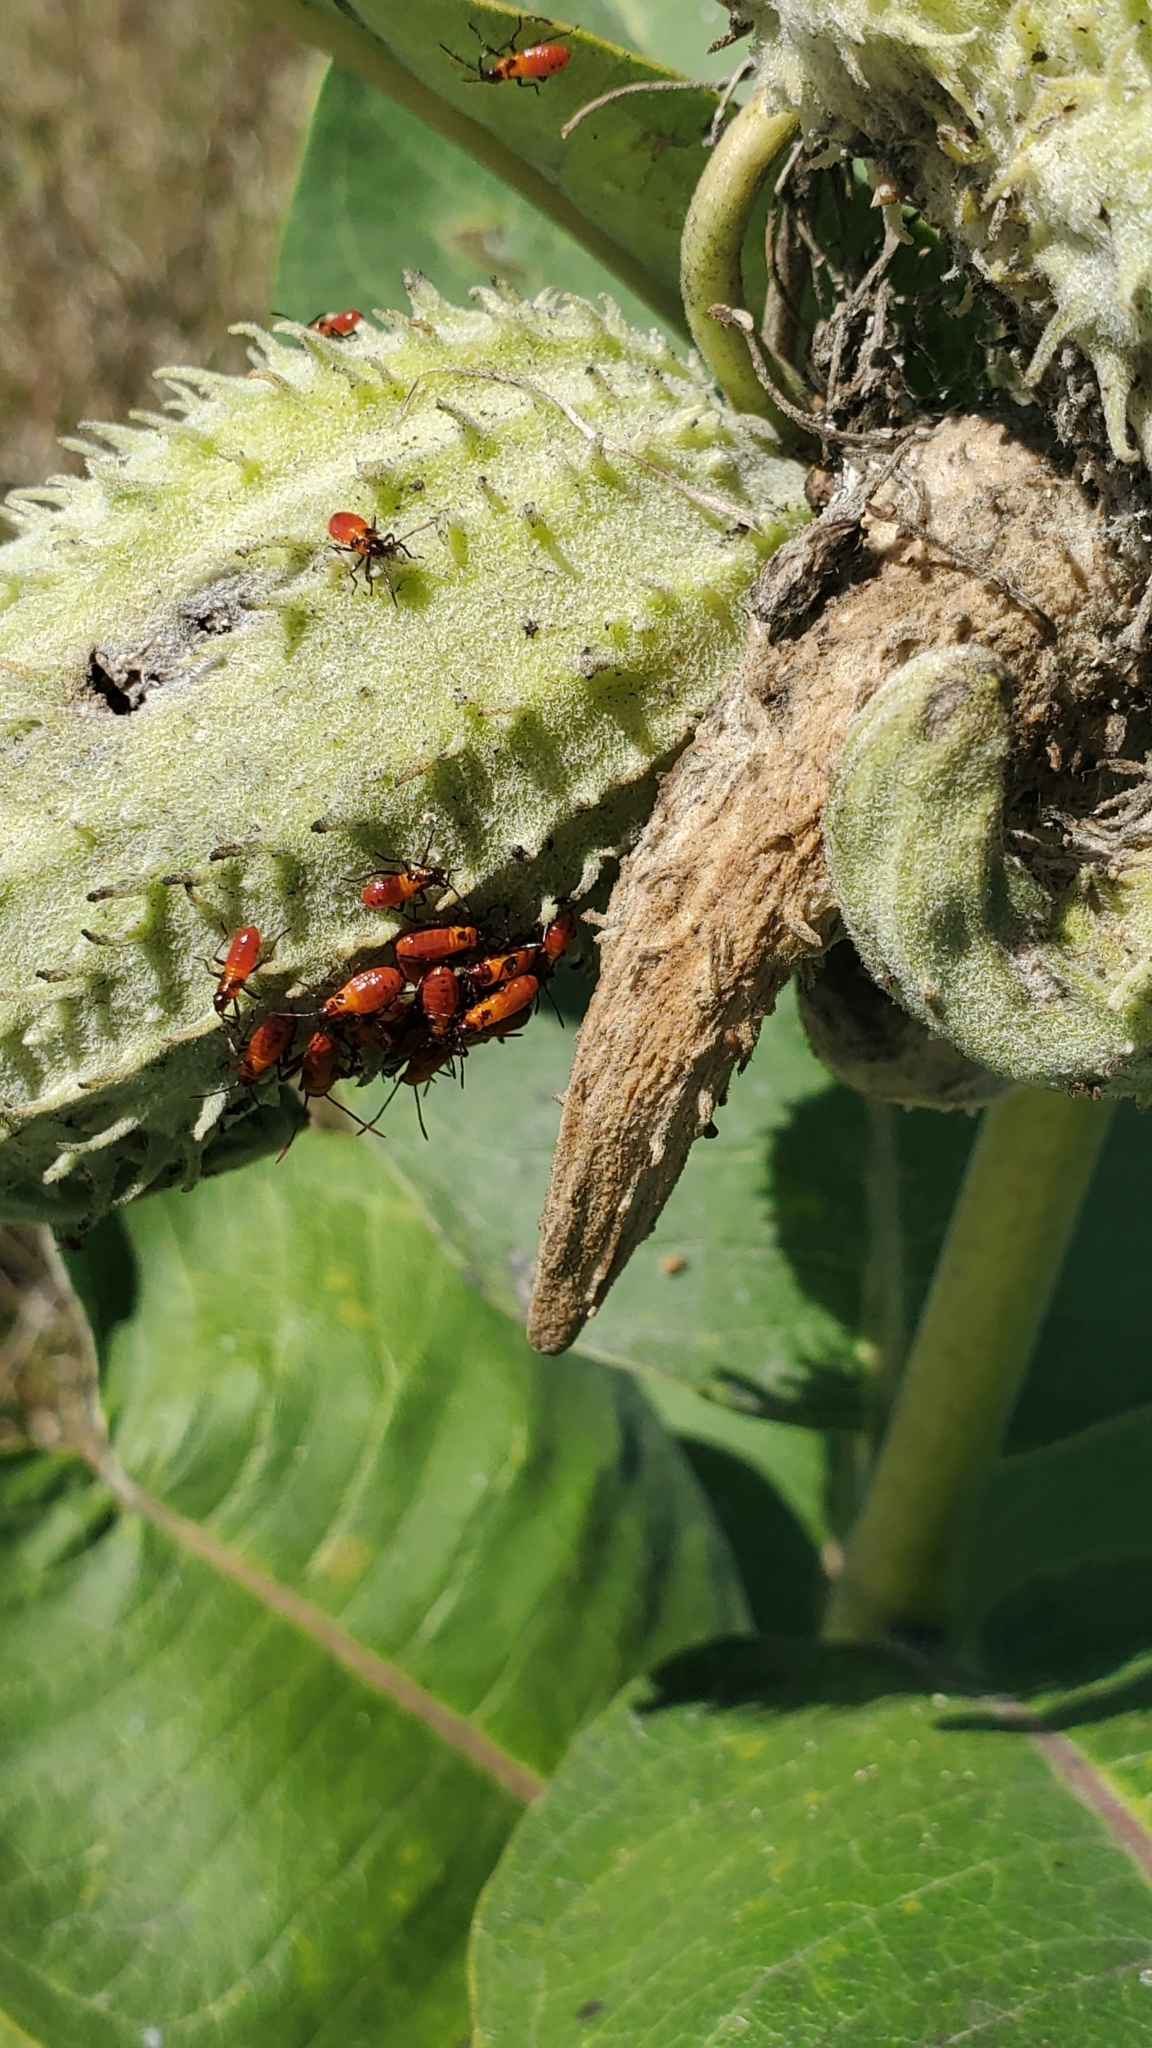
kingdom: Animalia
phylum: Arthropoda
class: Insecta
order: Hemiptera
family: Lygaeidae
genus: Oncopeltus
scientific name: Oncopeltus fasciatus
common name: Large milkweed bug
